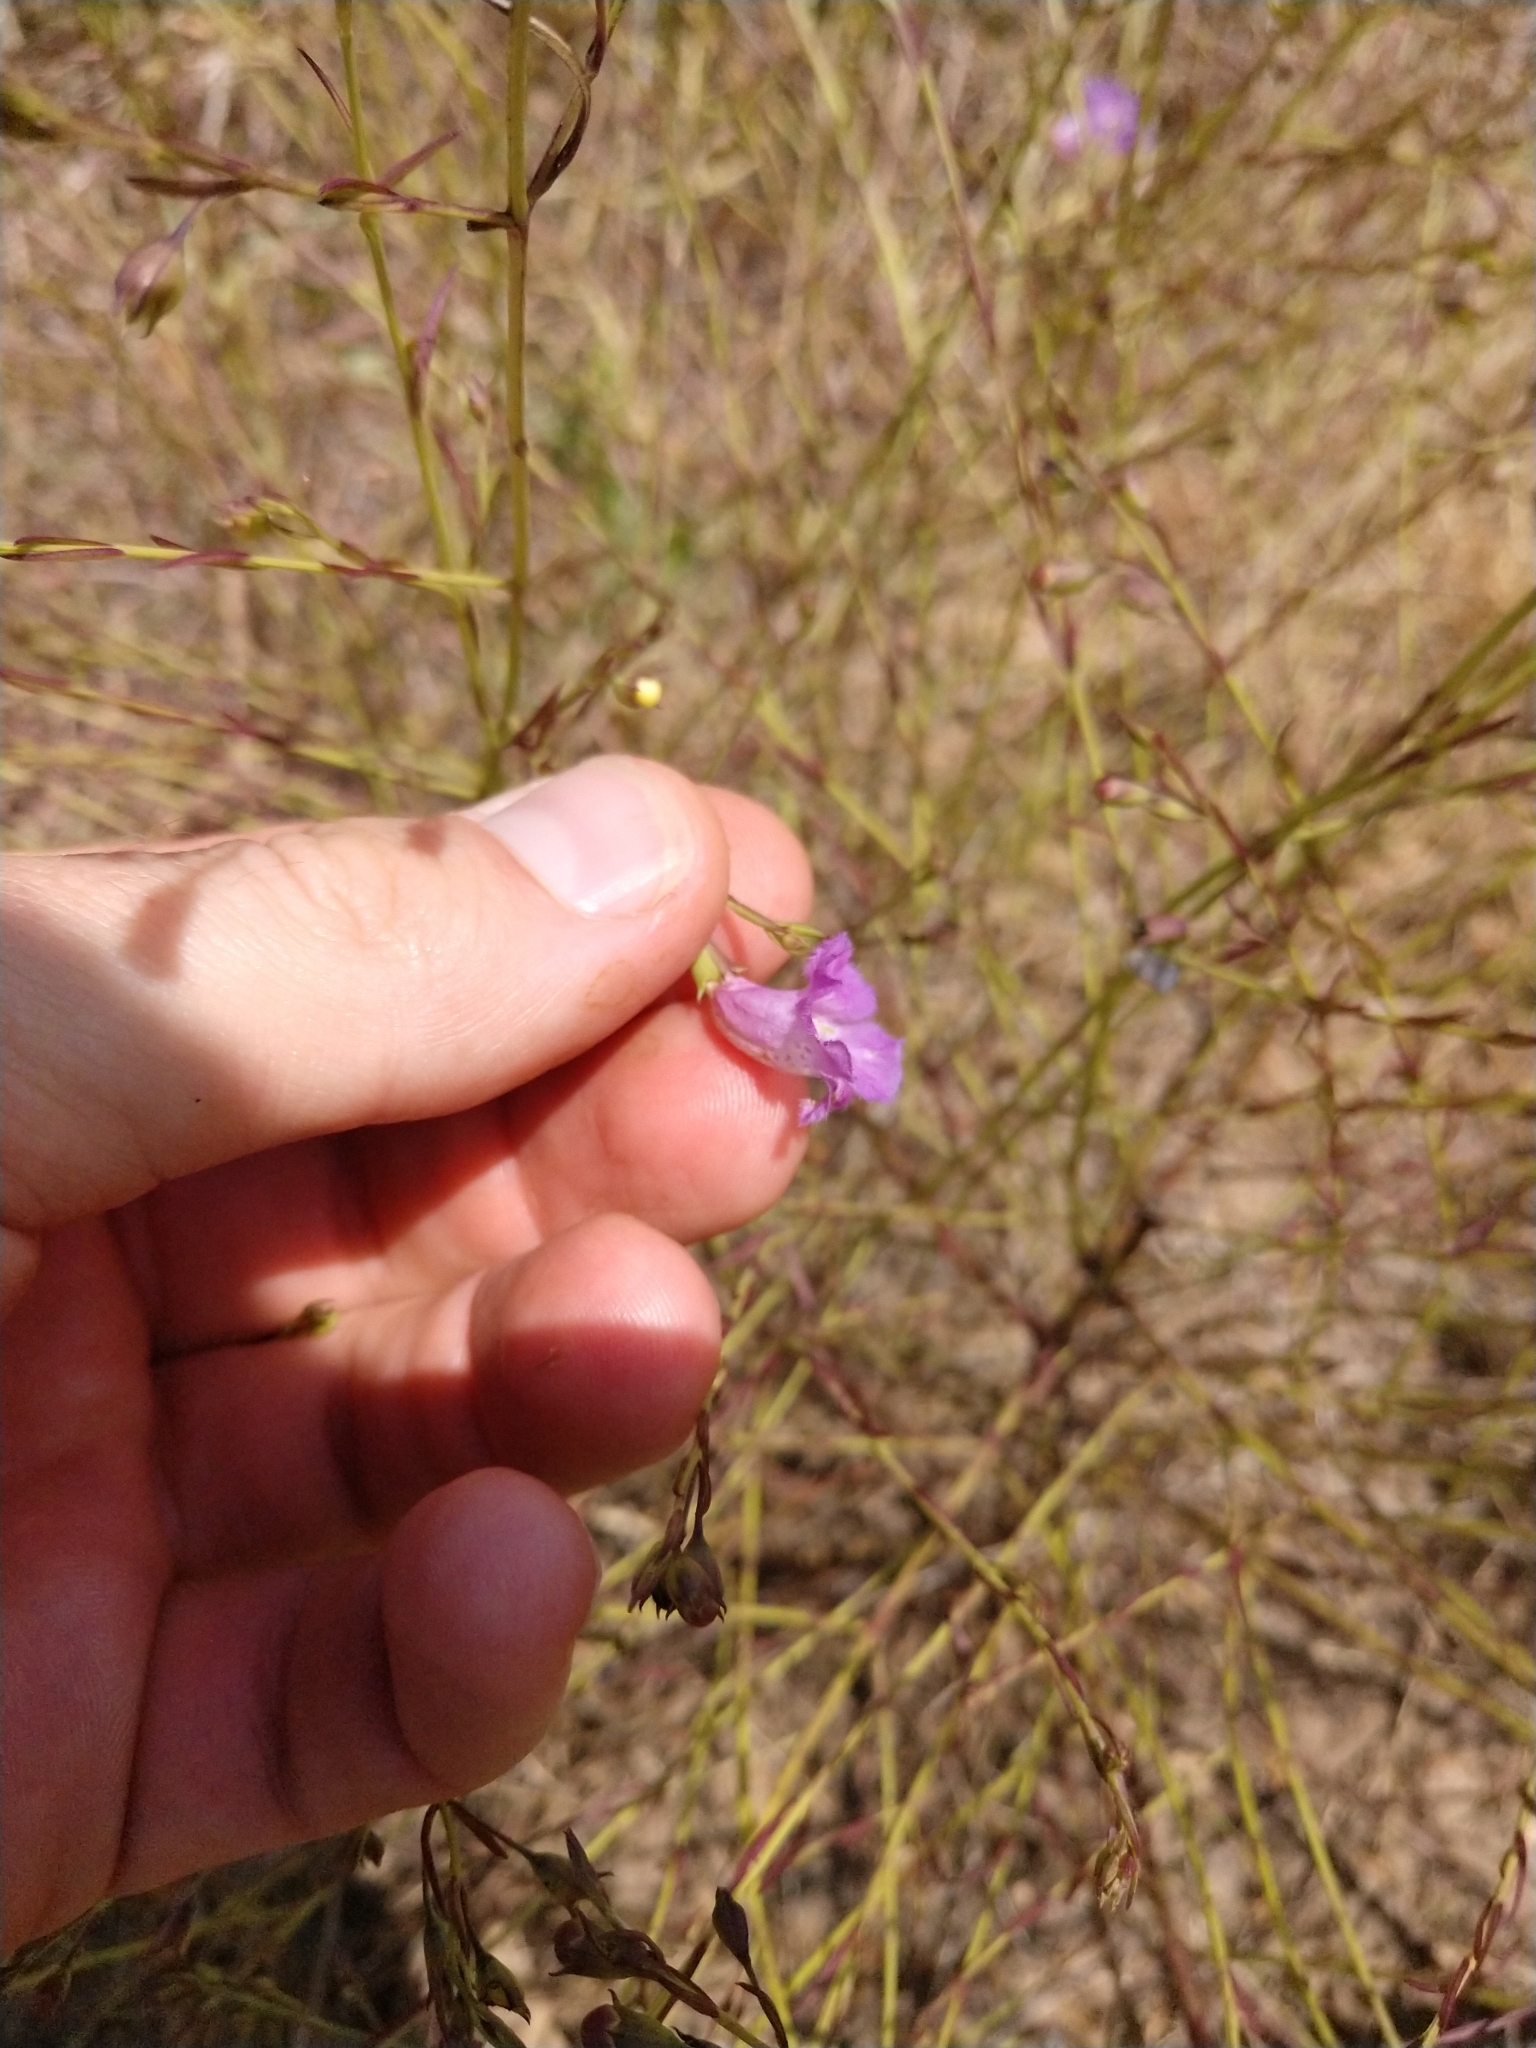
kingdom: Plantae
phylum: Tracheophyta
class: Magnoliopsida
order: Lamiales
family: Orobanchaceae
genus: Agalinis
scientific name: Agalinis strictifolia
